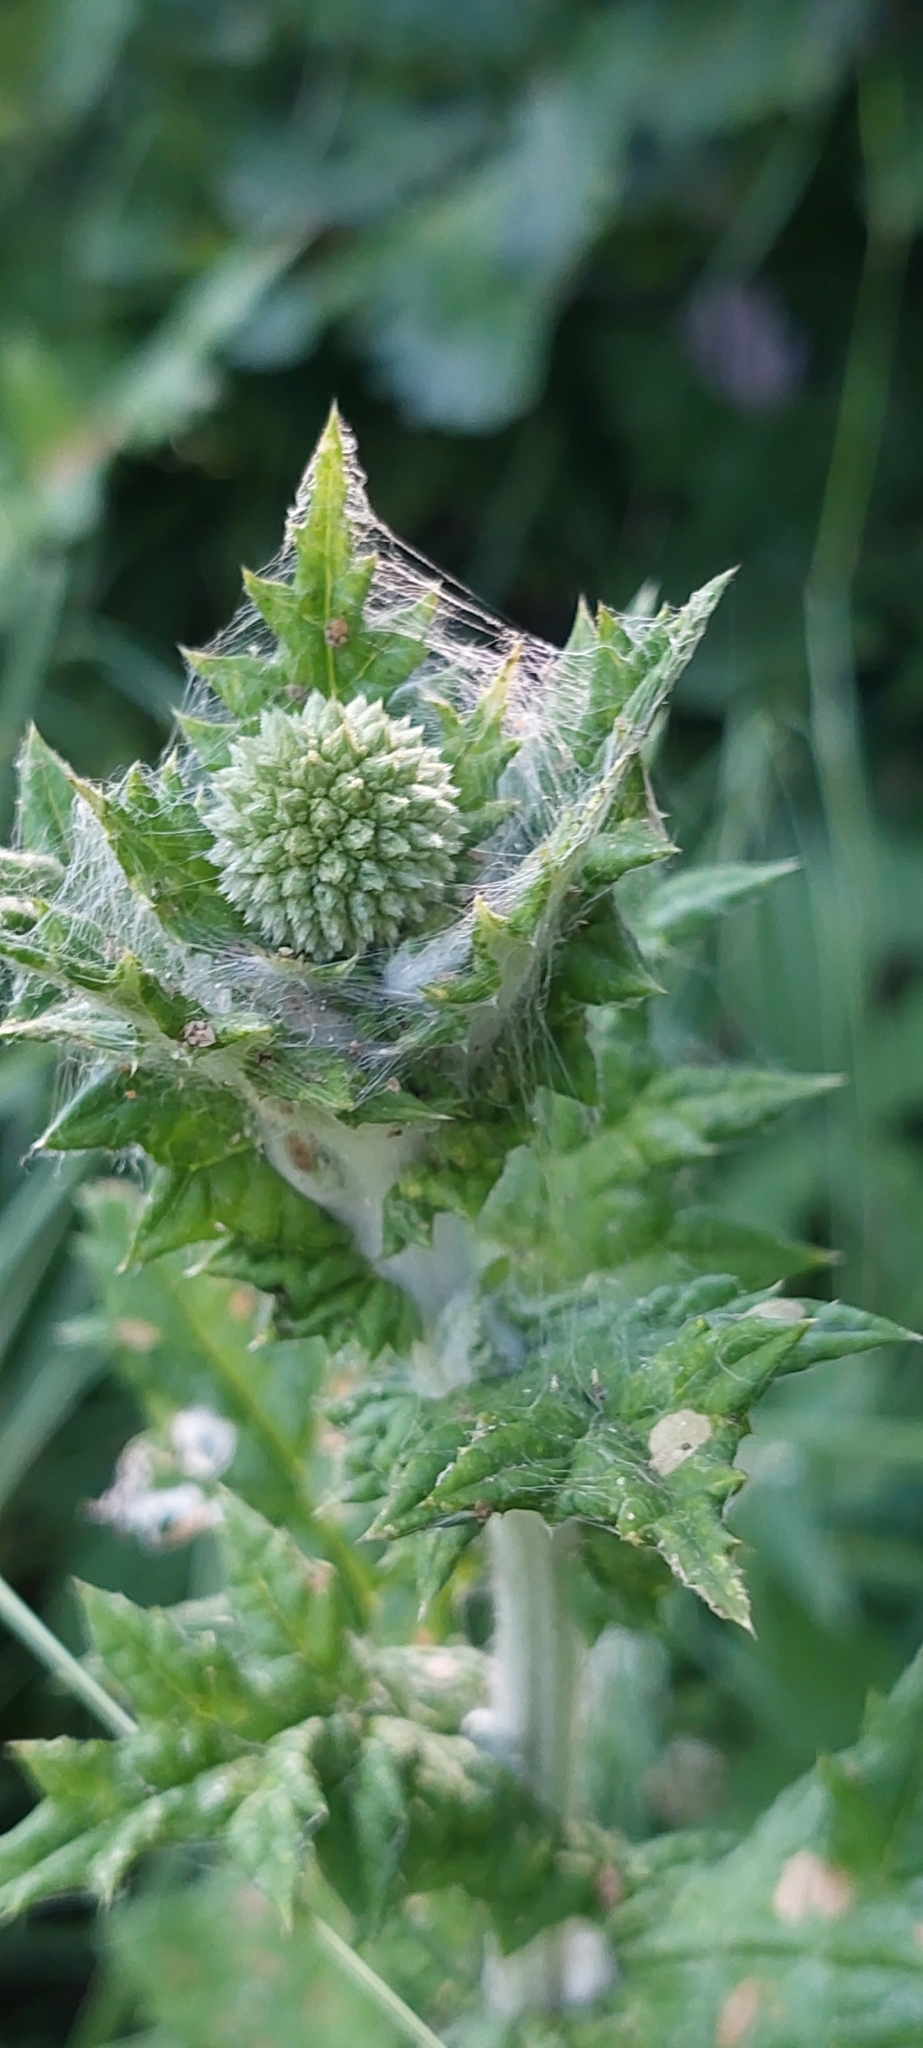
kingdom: Plantae
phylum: Tracheophyta
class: Magnoliopsida
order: Asterales
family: Asteraceae
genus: Echinops
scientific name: Echinops sphaerocephalus
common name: Glandular globe-thistle
